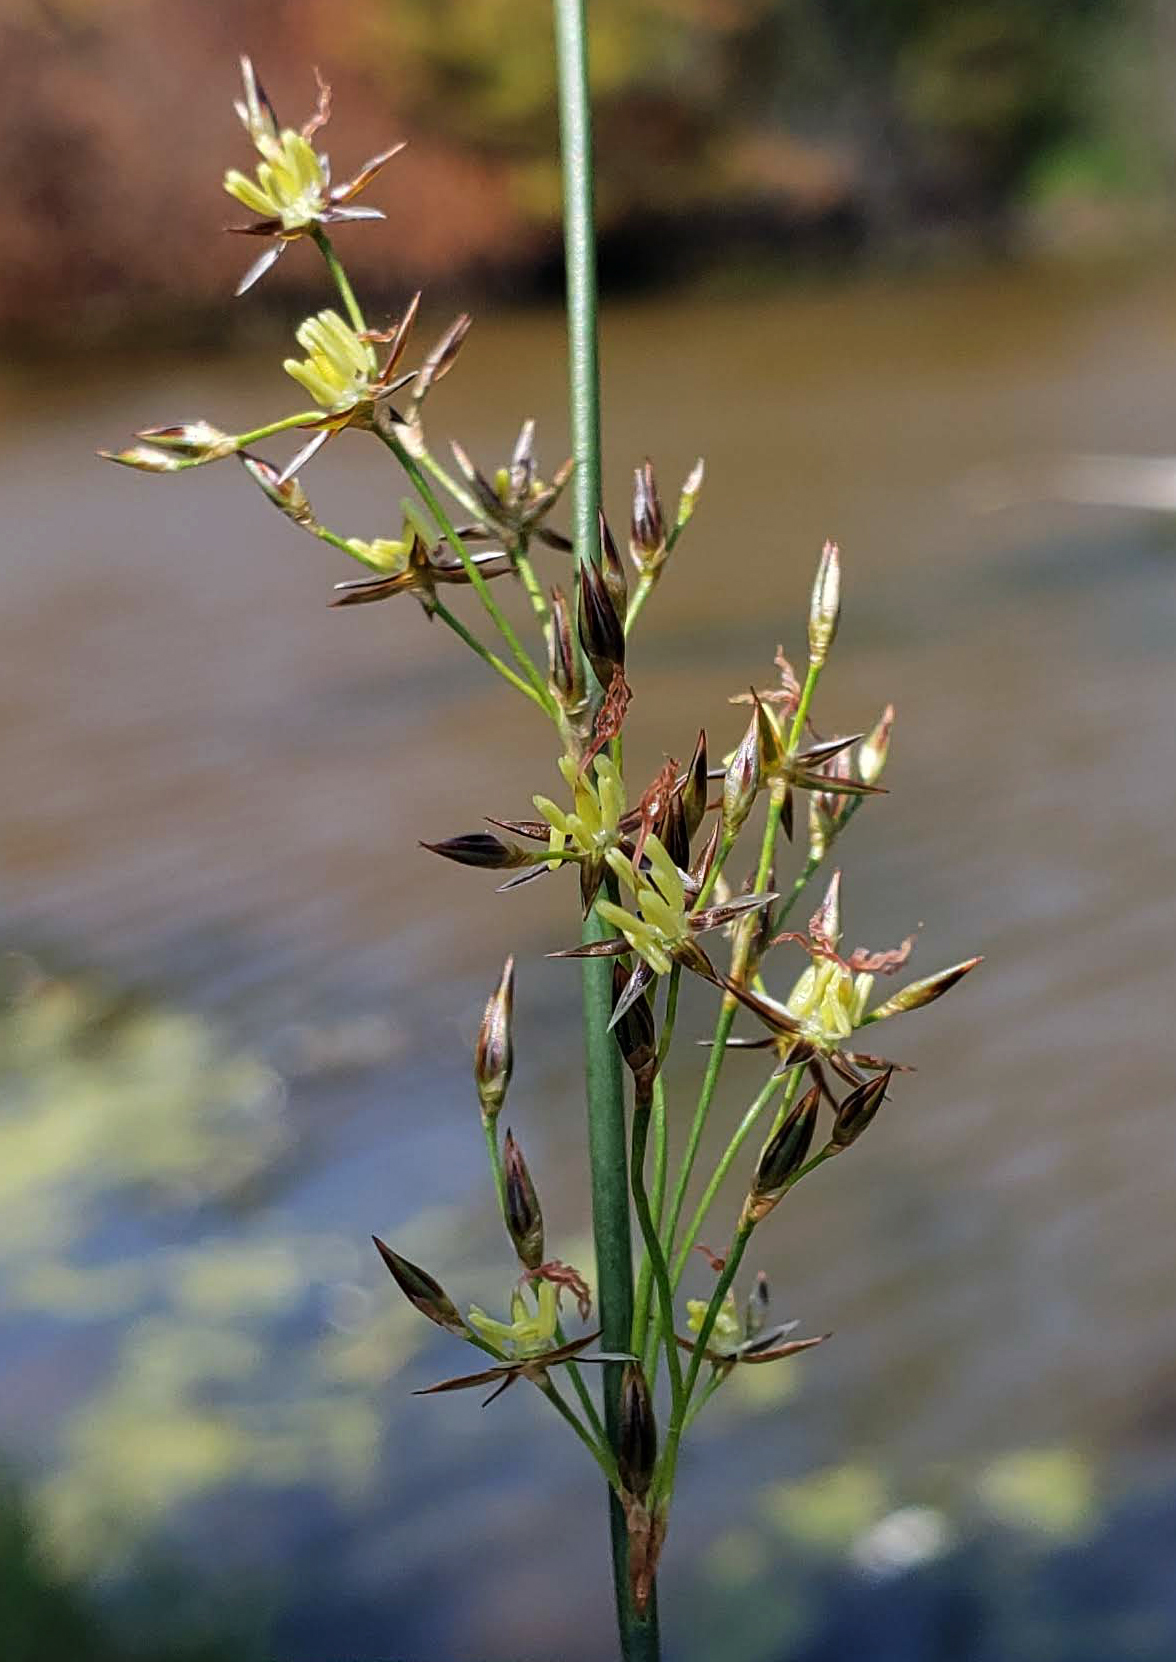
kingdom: Plantae
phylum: Tracheophyta
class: Liliopsida
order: Poales
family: Juncaceae
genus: Juncus
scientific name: Juncus balticus
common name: Baltic rush
